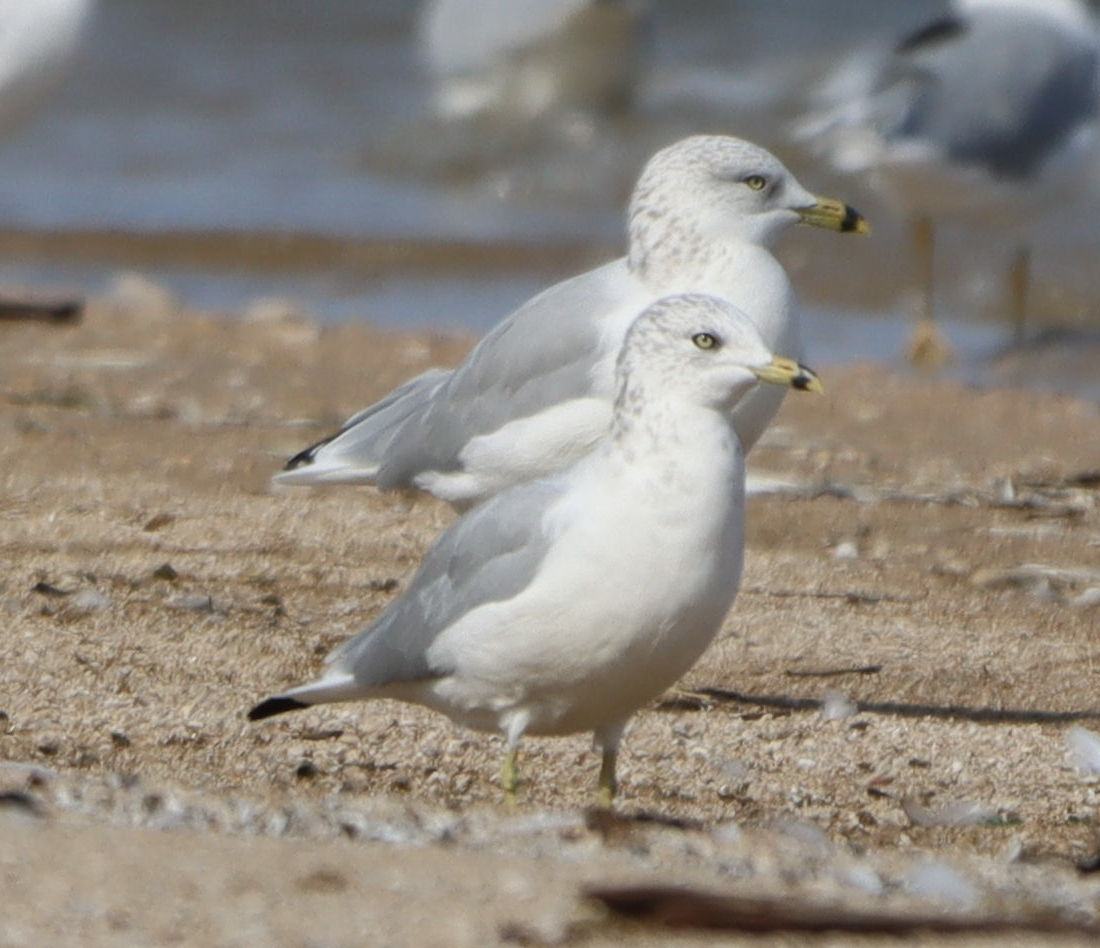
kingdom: Animalia
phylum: Chordata
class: Aves
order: Charadriiformes
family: Laridae
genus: Larus
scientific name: Larus delawarensis
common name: Ring-billed gull
